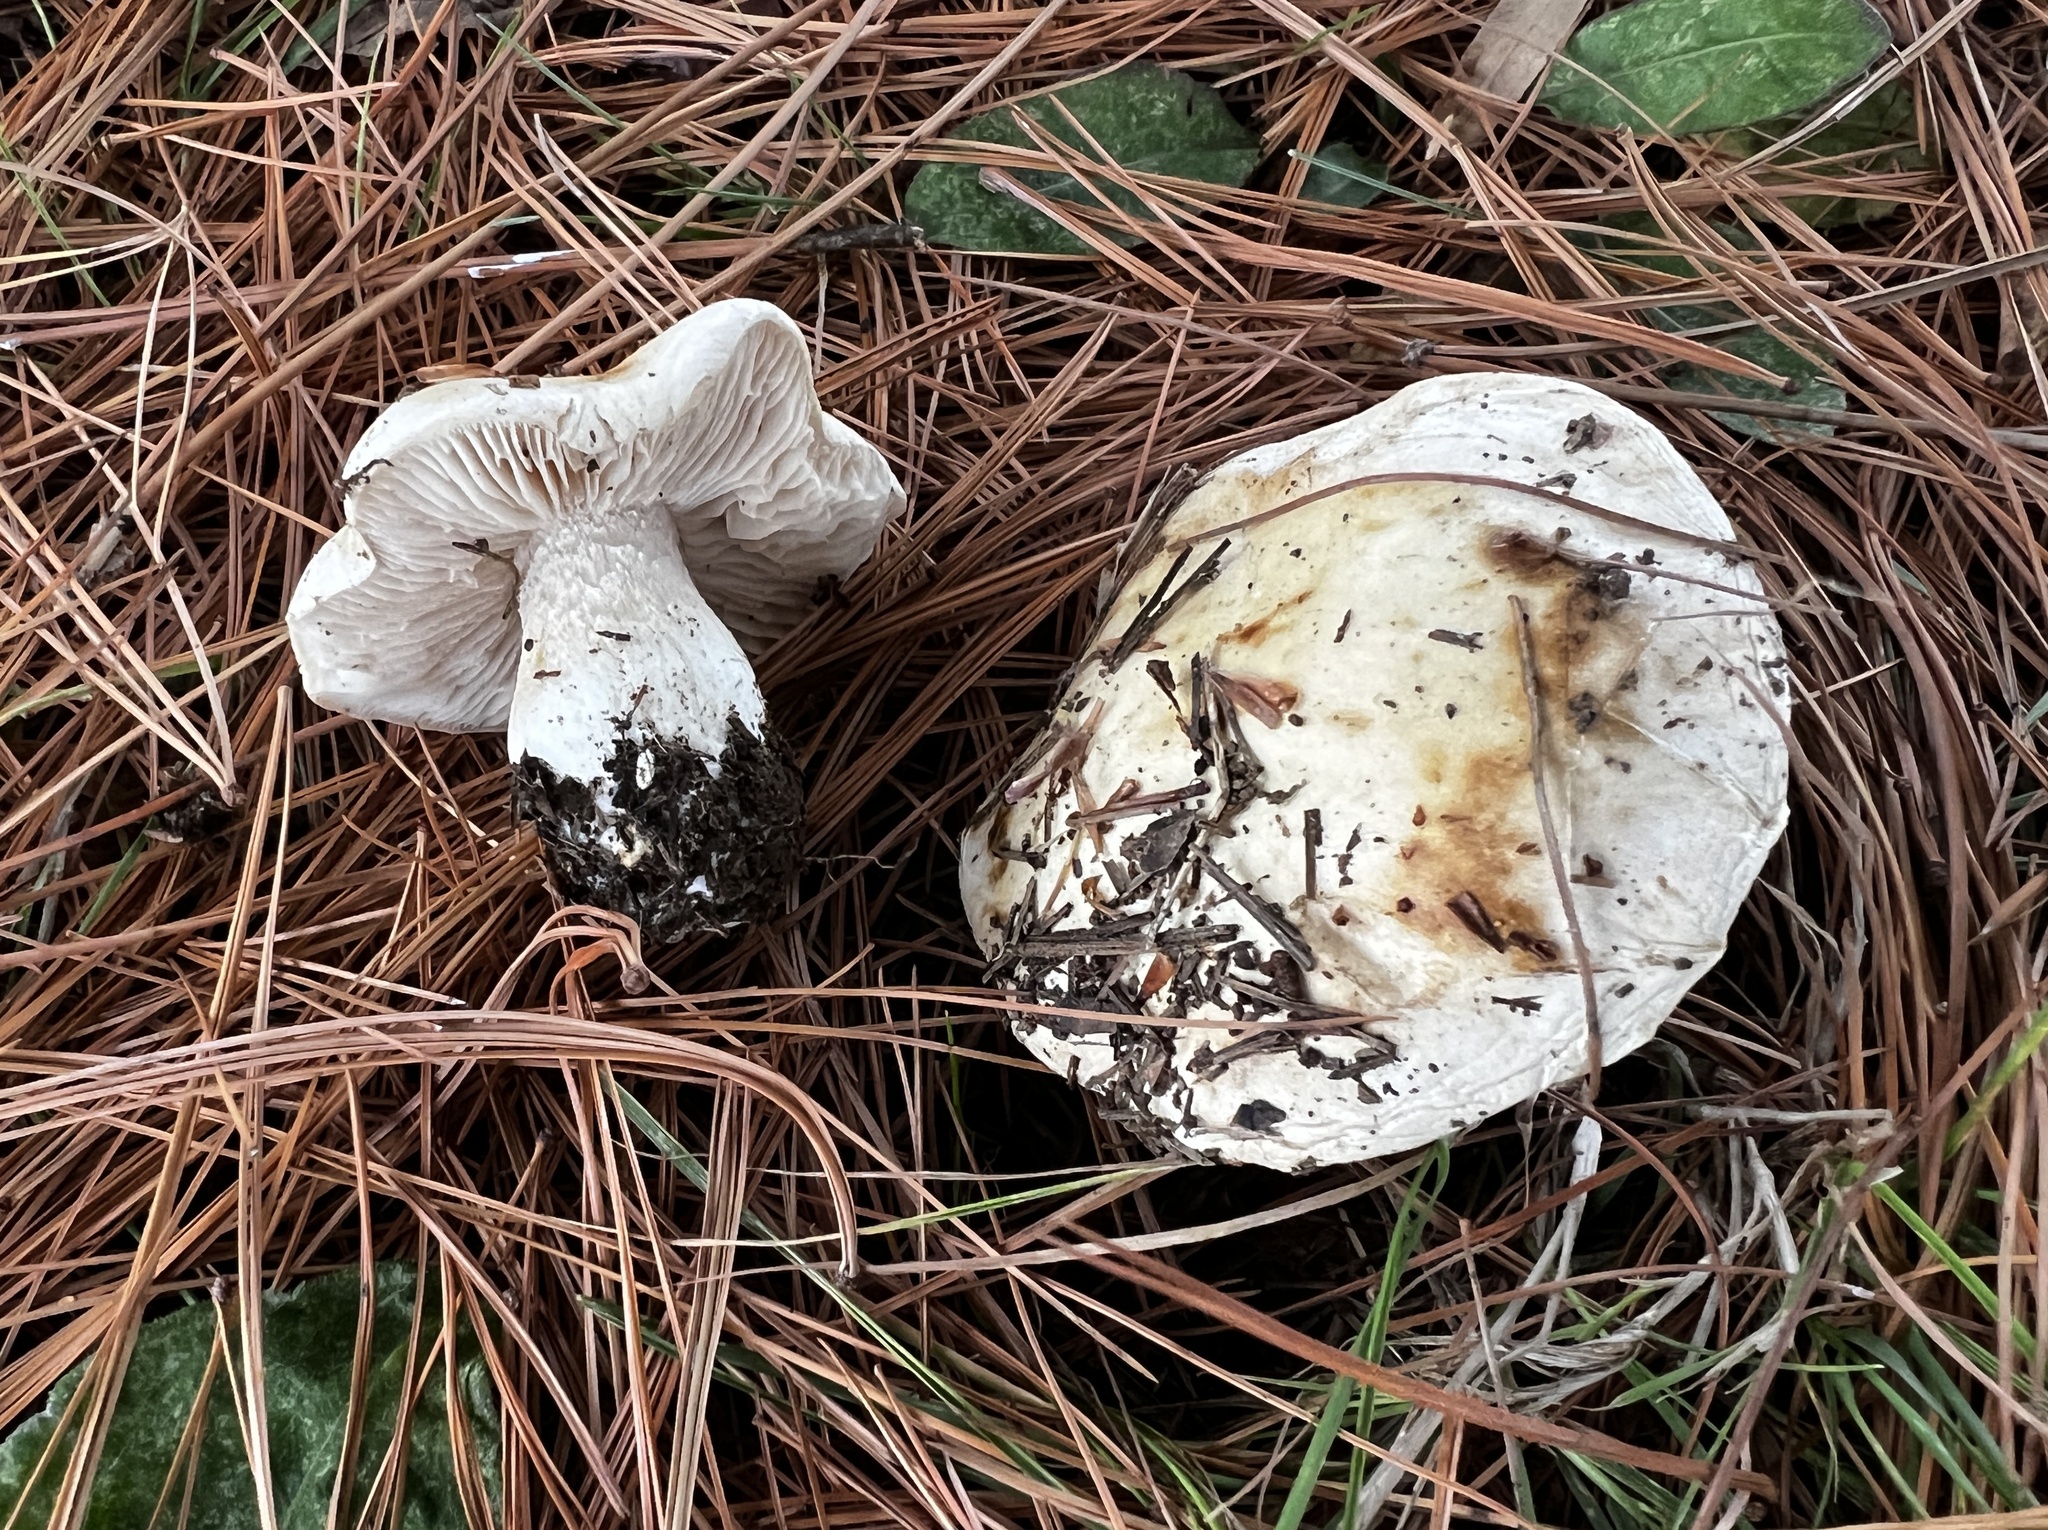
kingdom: Fungi
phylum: Basidiomycota
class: Agaricomycetes
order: Agaricales
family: Hymenogastraceae
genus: Hebeloma
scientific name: Hebeloma crustuliniforme
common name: Poison pie
